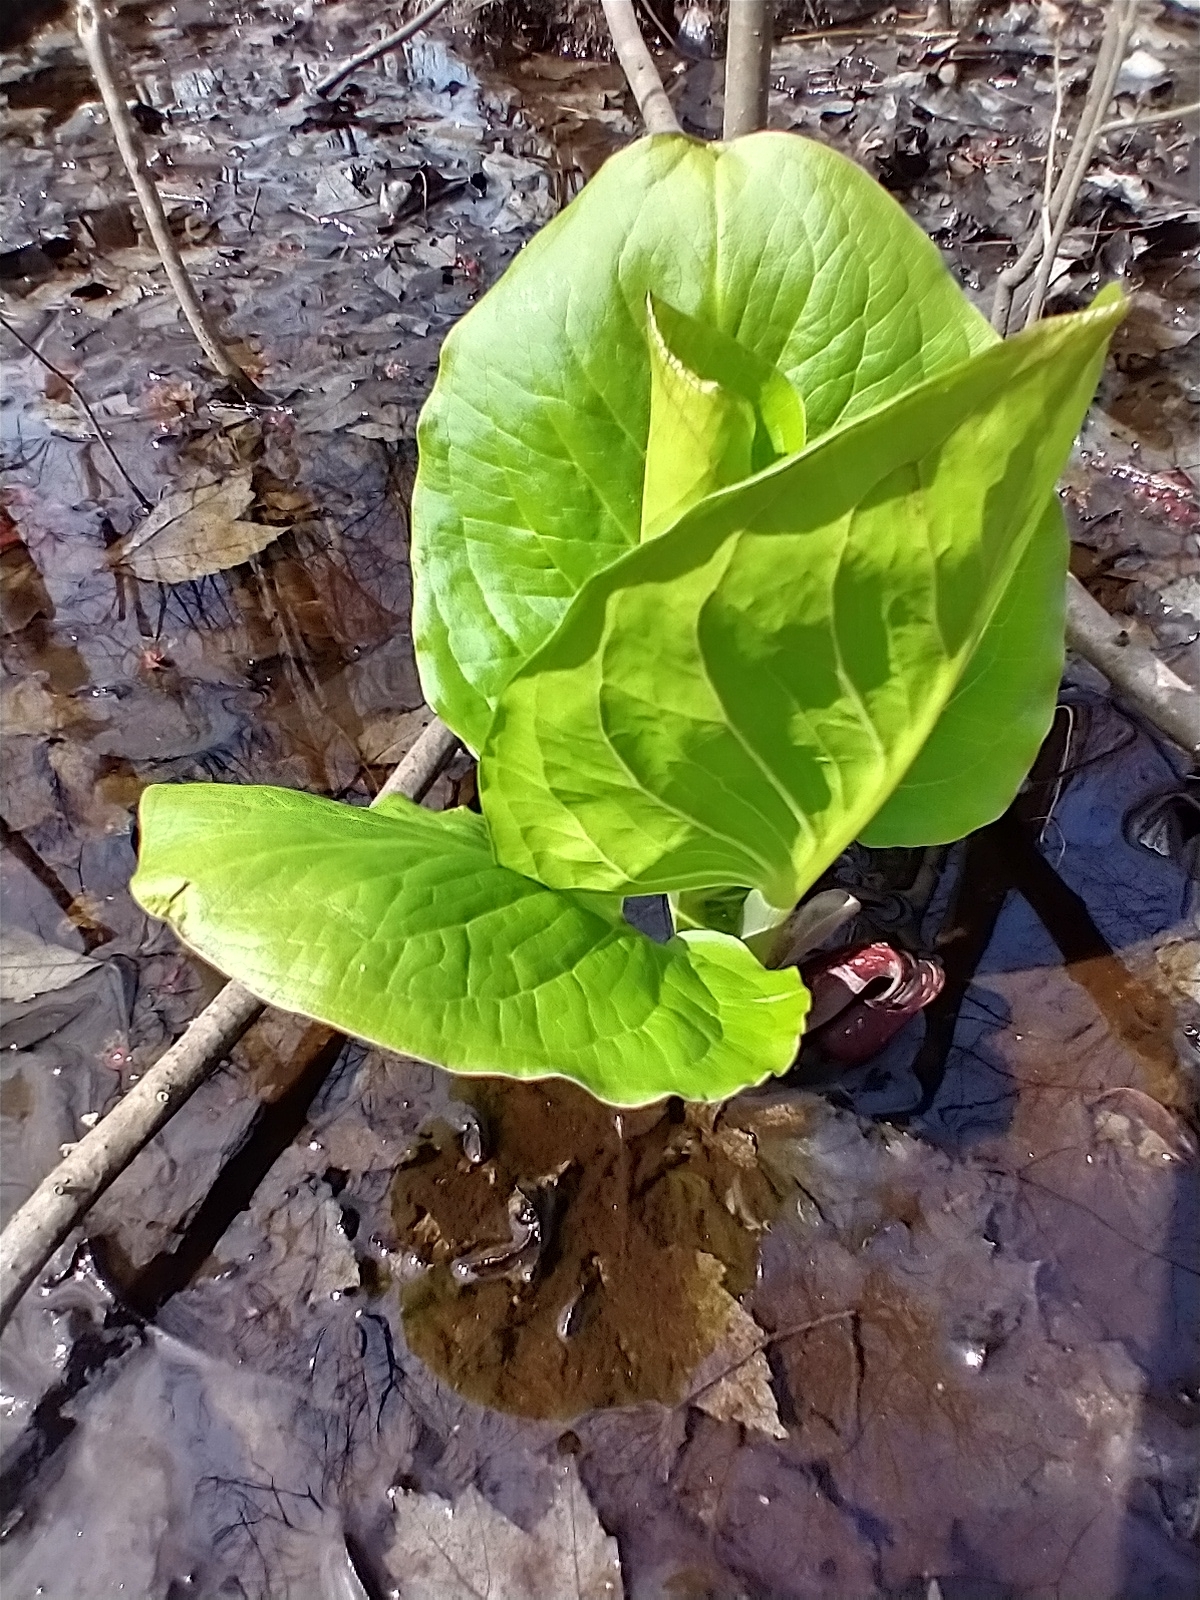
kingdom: Plantae
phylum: Tracheophyta
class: Liliopsida
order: Alismatales
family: Araceae
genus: Symplocarpus
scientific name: Symplocarpus foetidus
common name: Eastern skunk cabbage
